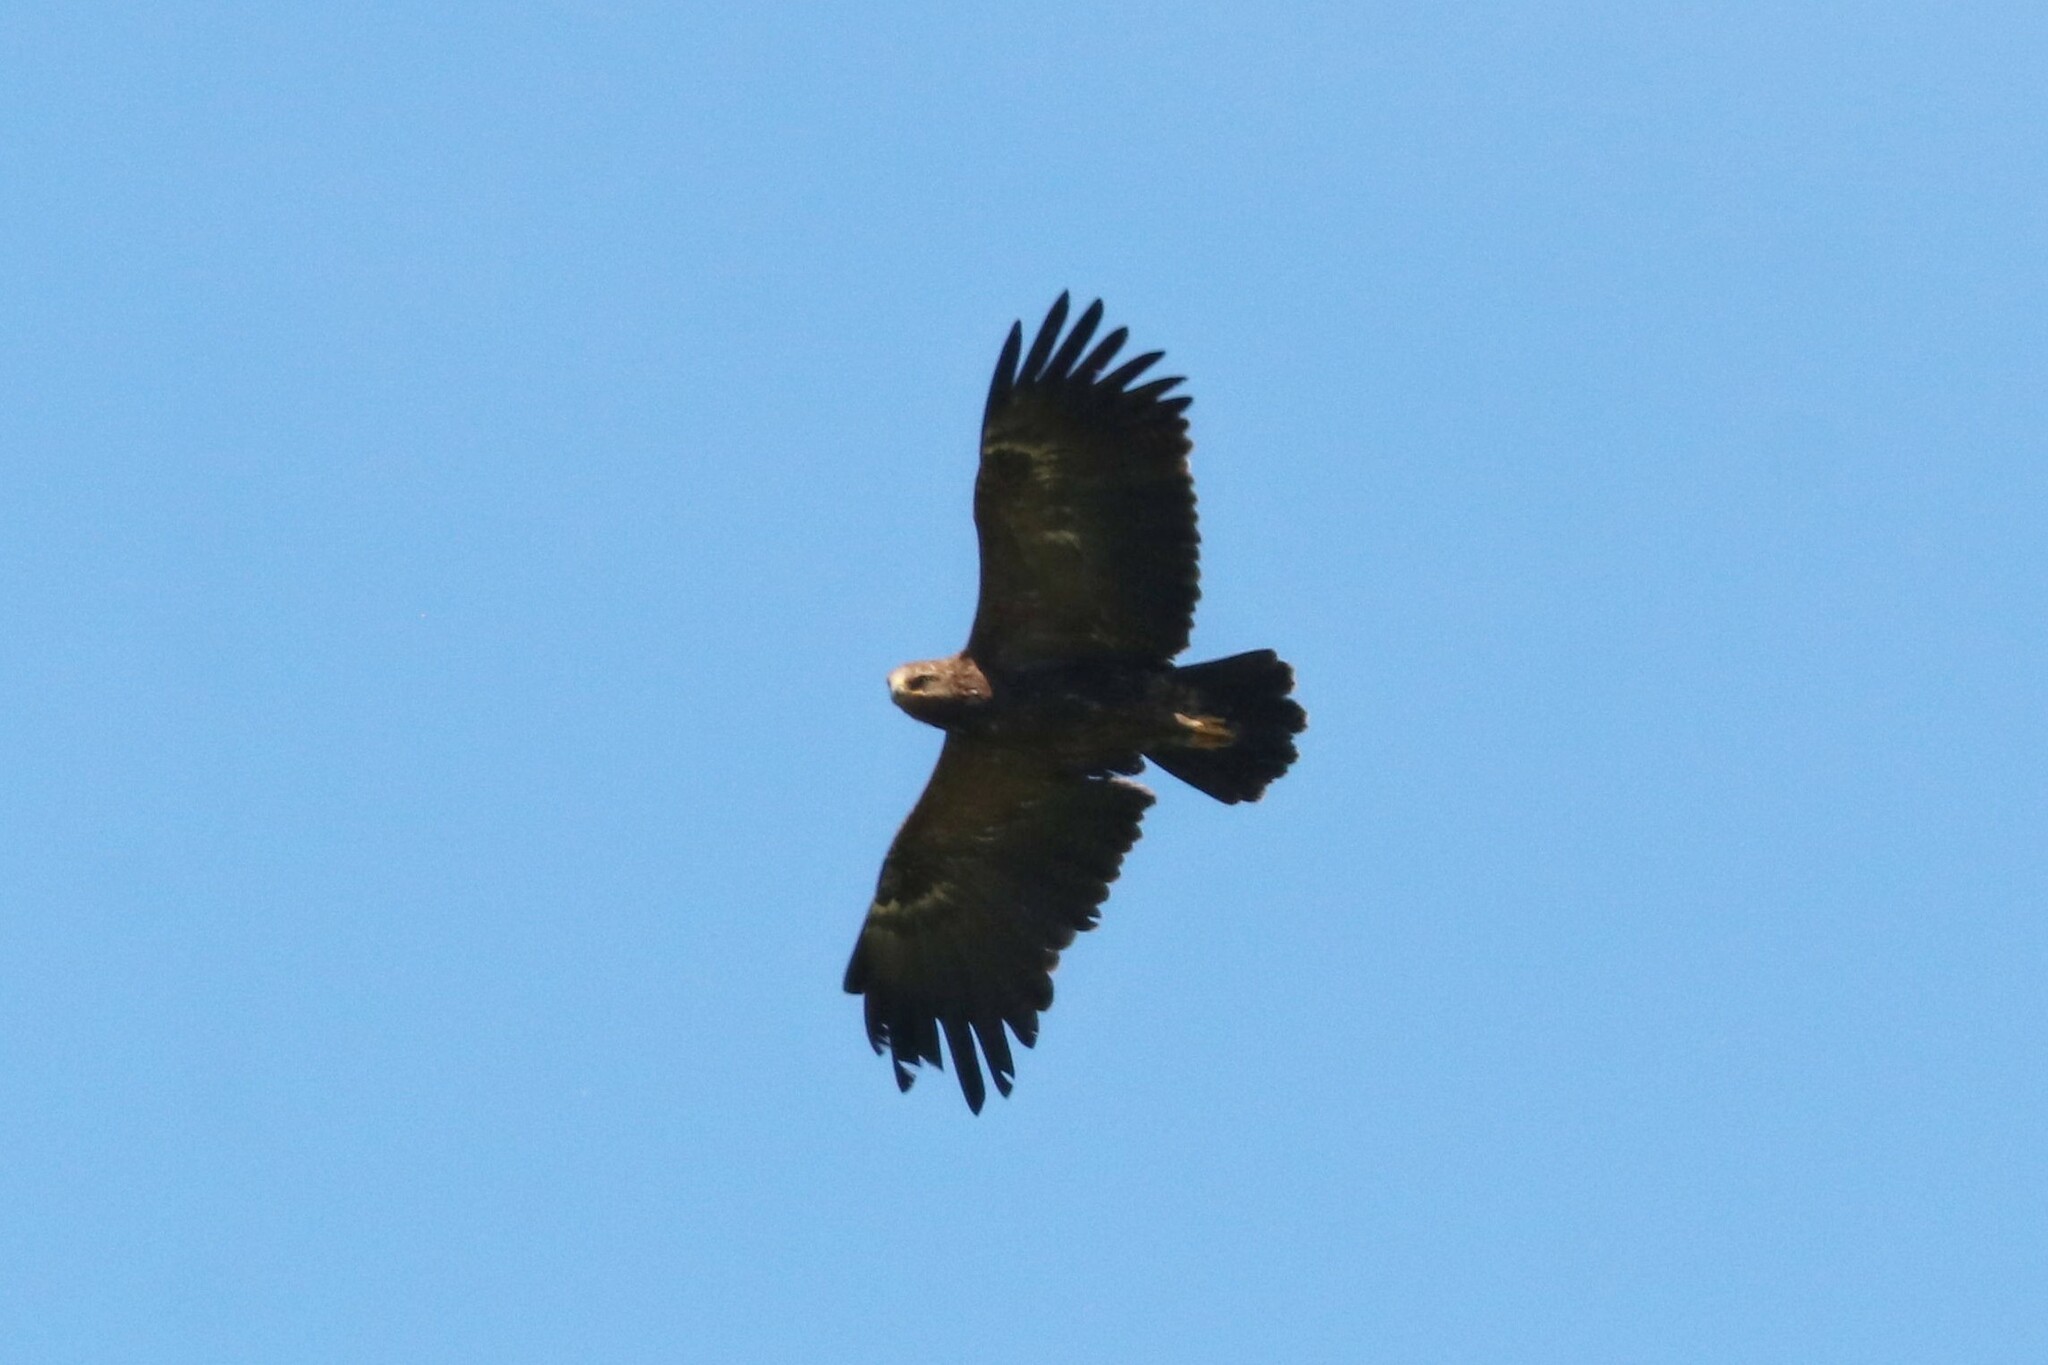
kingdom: Animalia
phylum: Chordata
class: Aves
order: Accipitriformes
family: Accipitridae
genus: Aquila
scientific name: Aquila clanga
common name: Greater spotted eagle
